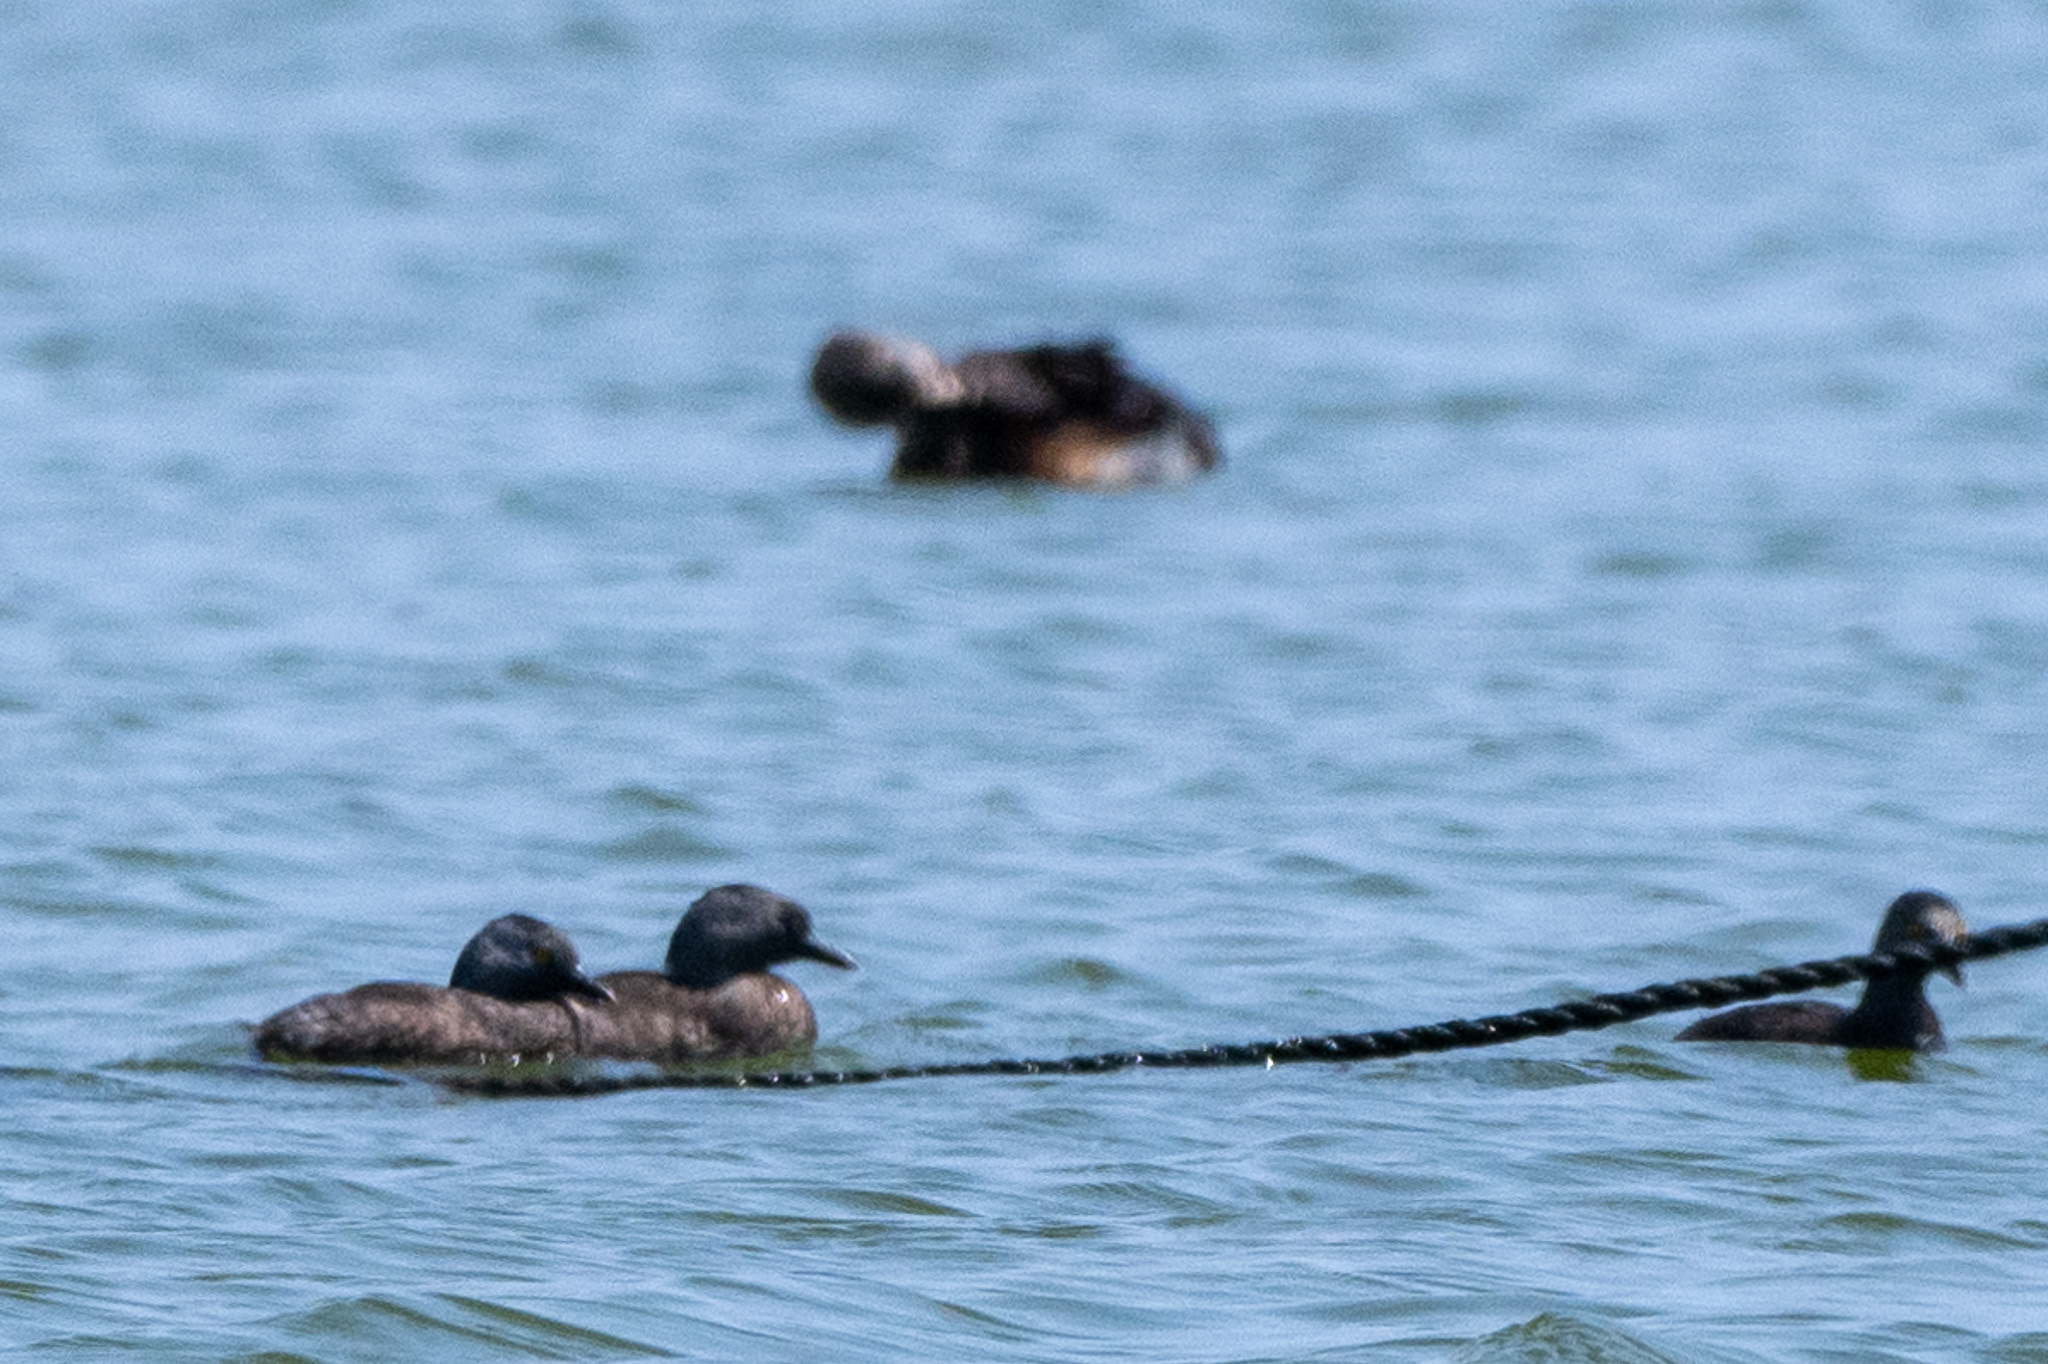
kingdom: Animalia
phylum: Chordata
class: Aves
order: Podicipediformes
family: Podicipedidae
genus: Podilymbus
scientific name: Podilymbus podiceps
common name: Pied-billed grebe
